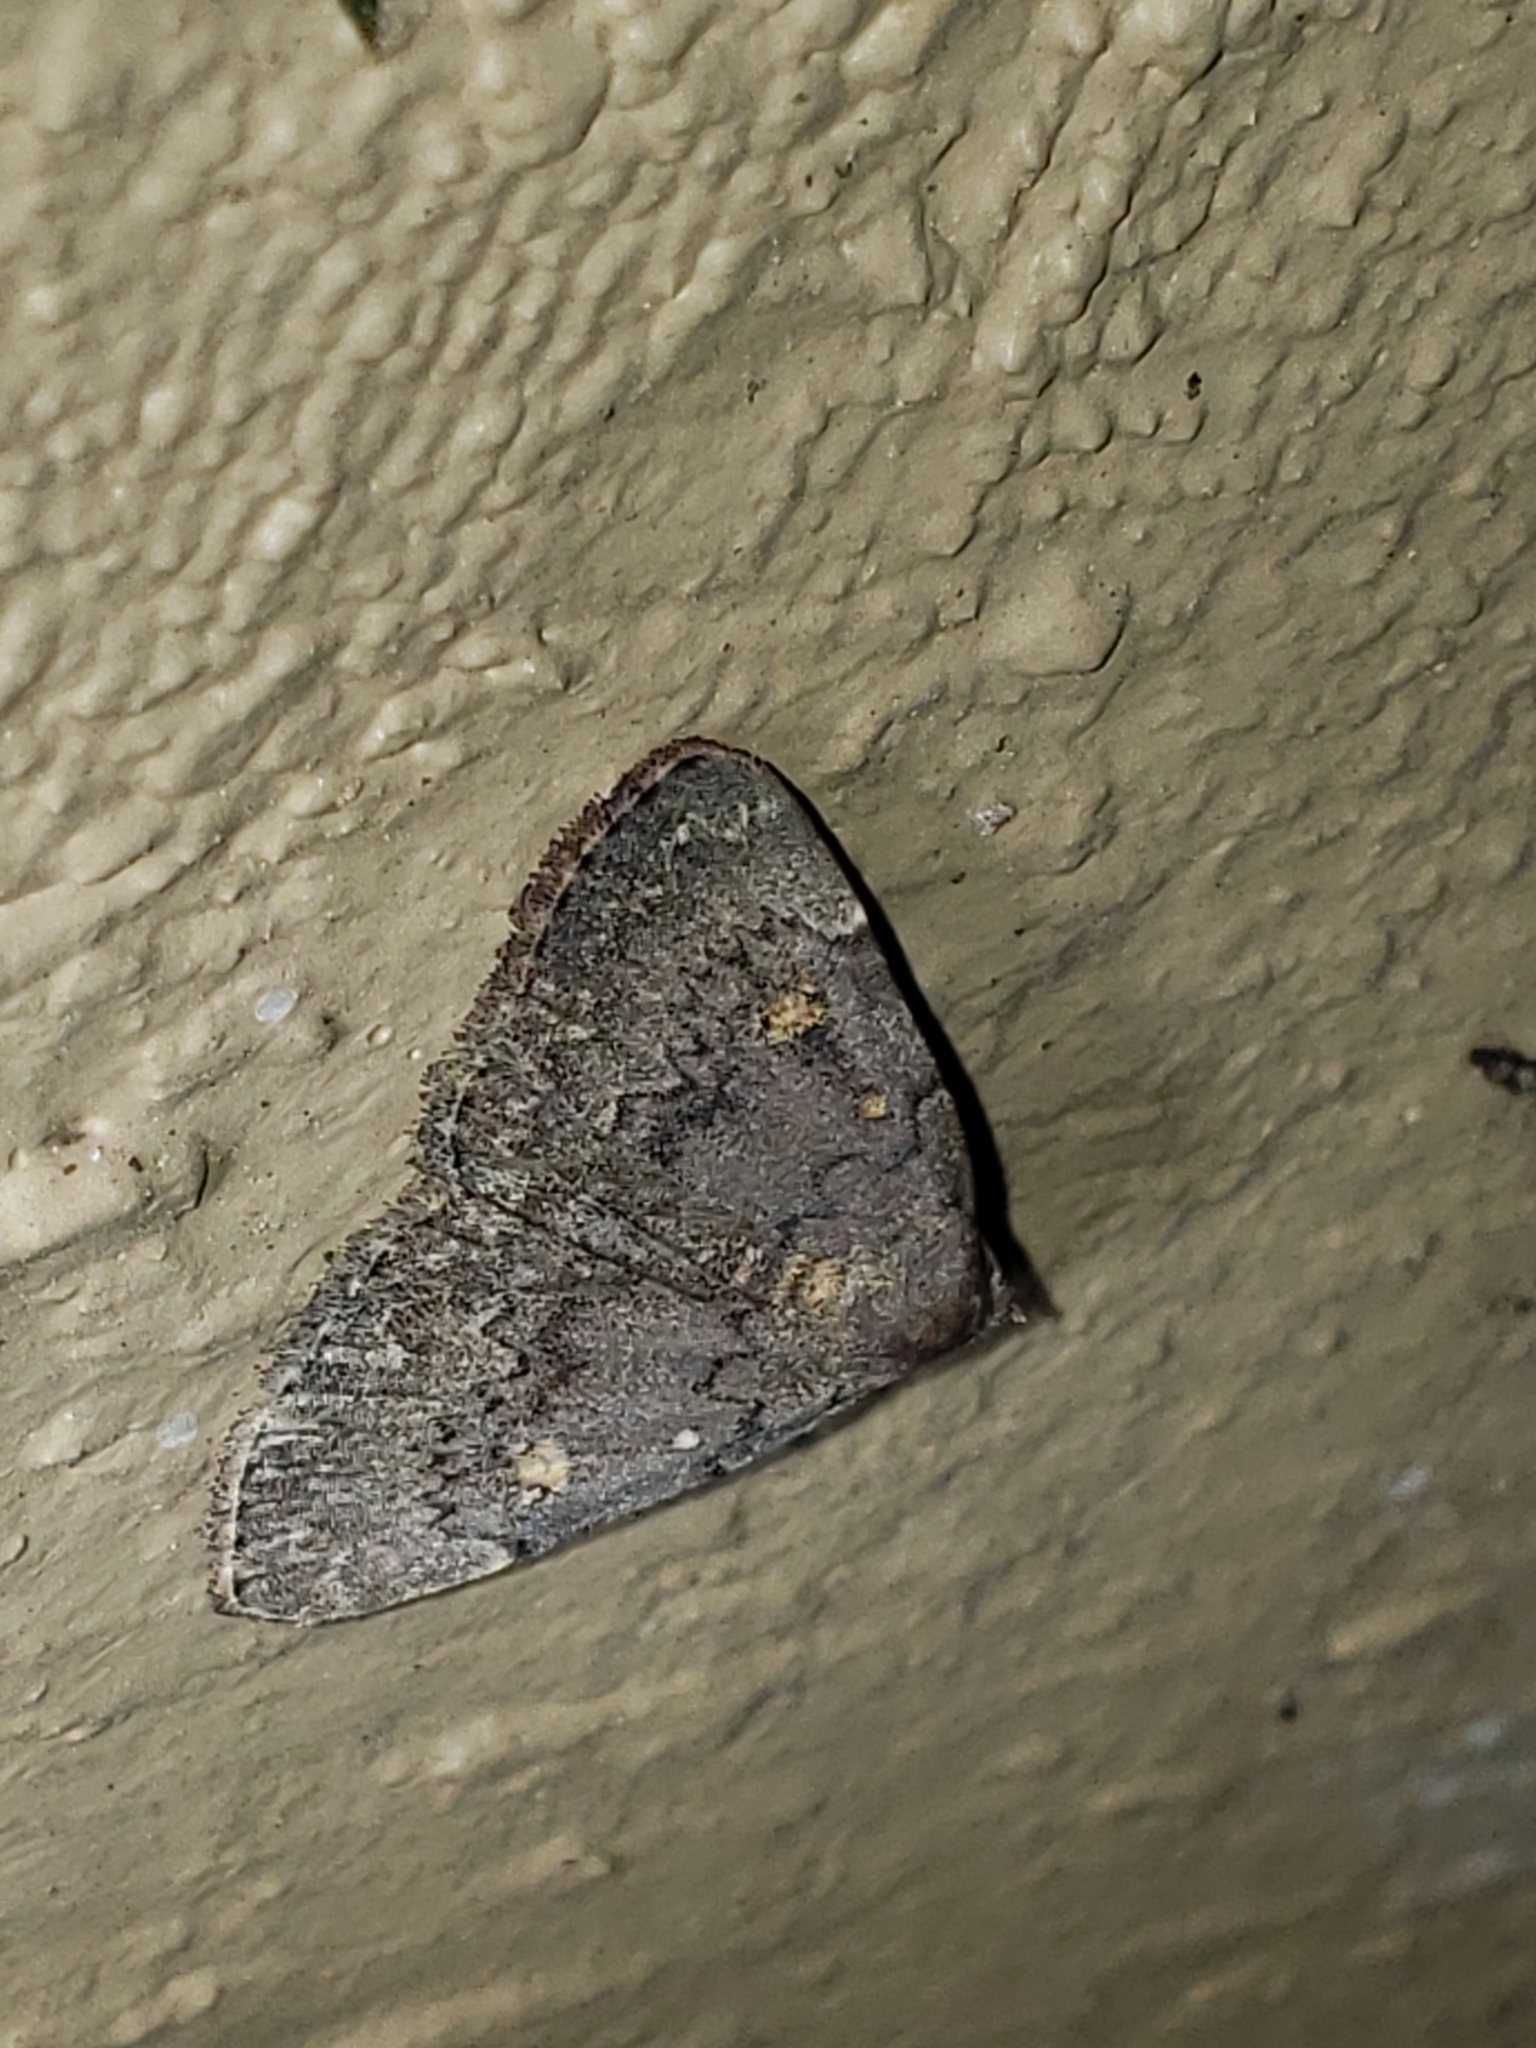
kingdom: Animalia
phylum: Arthropoda
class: Insecta
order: Lepidoptera
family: Erebidae
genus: Idia
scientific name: Idia aemula
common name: Common idia moth
